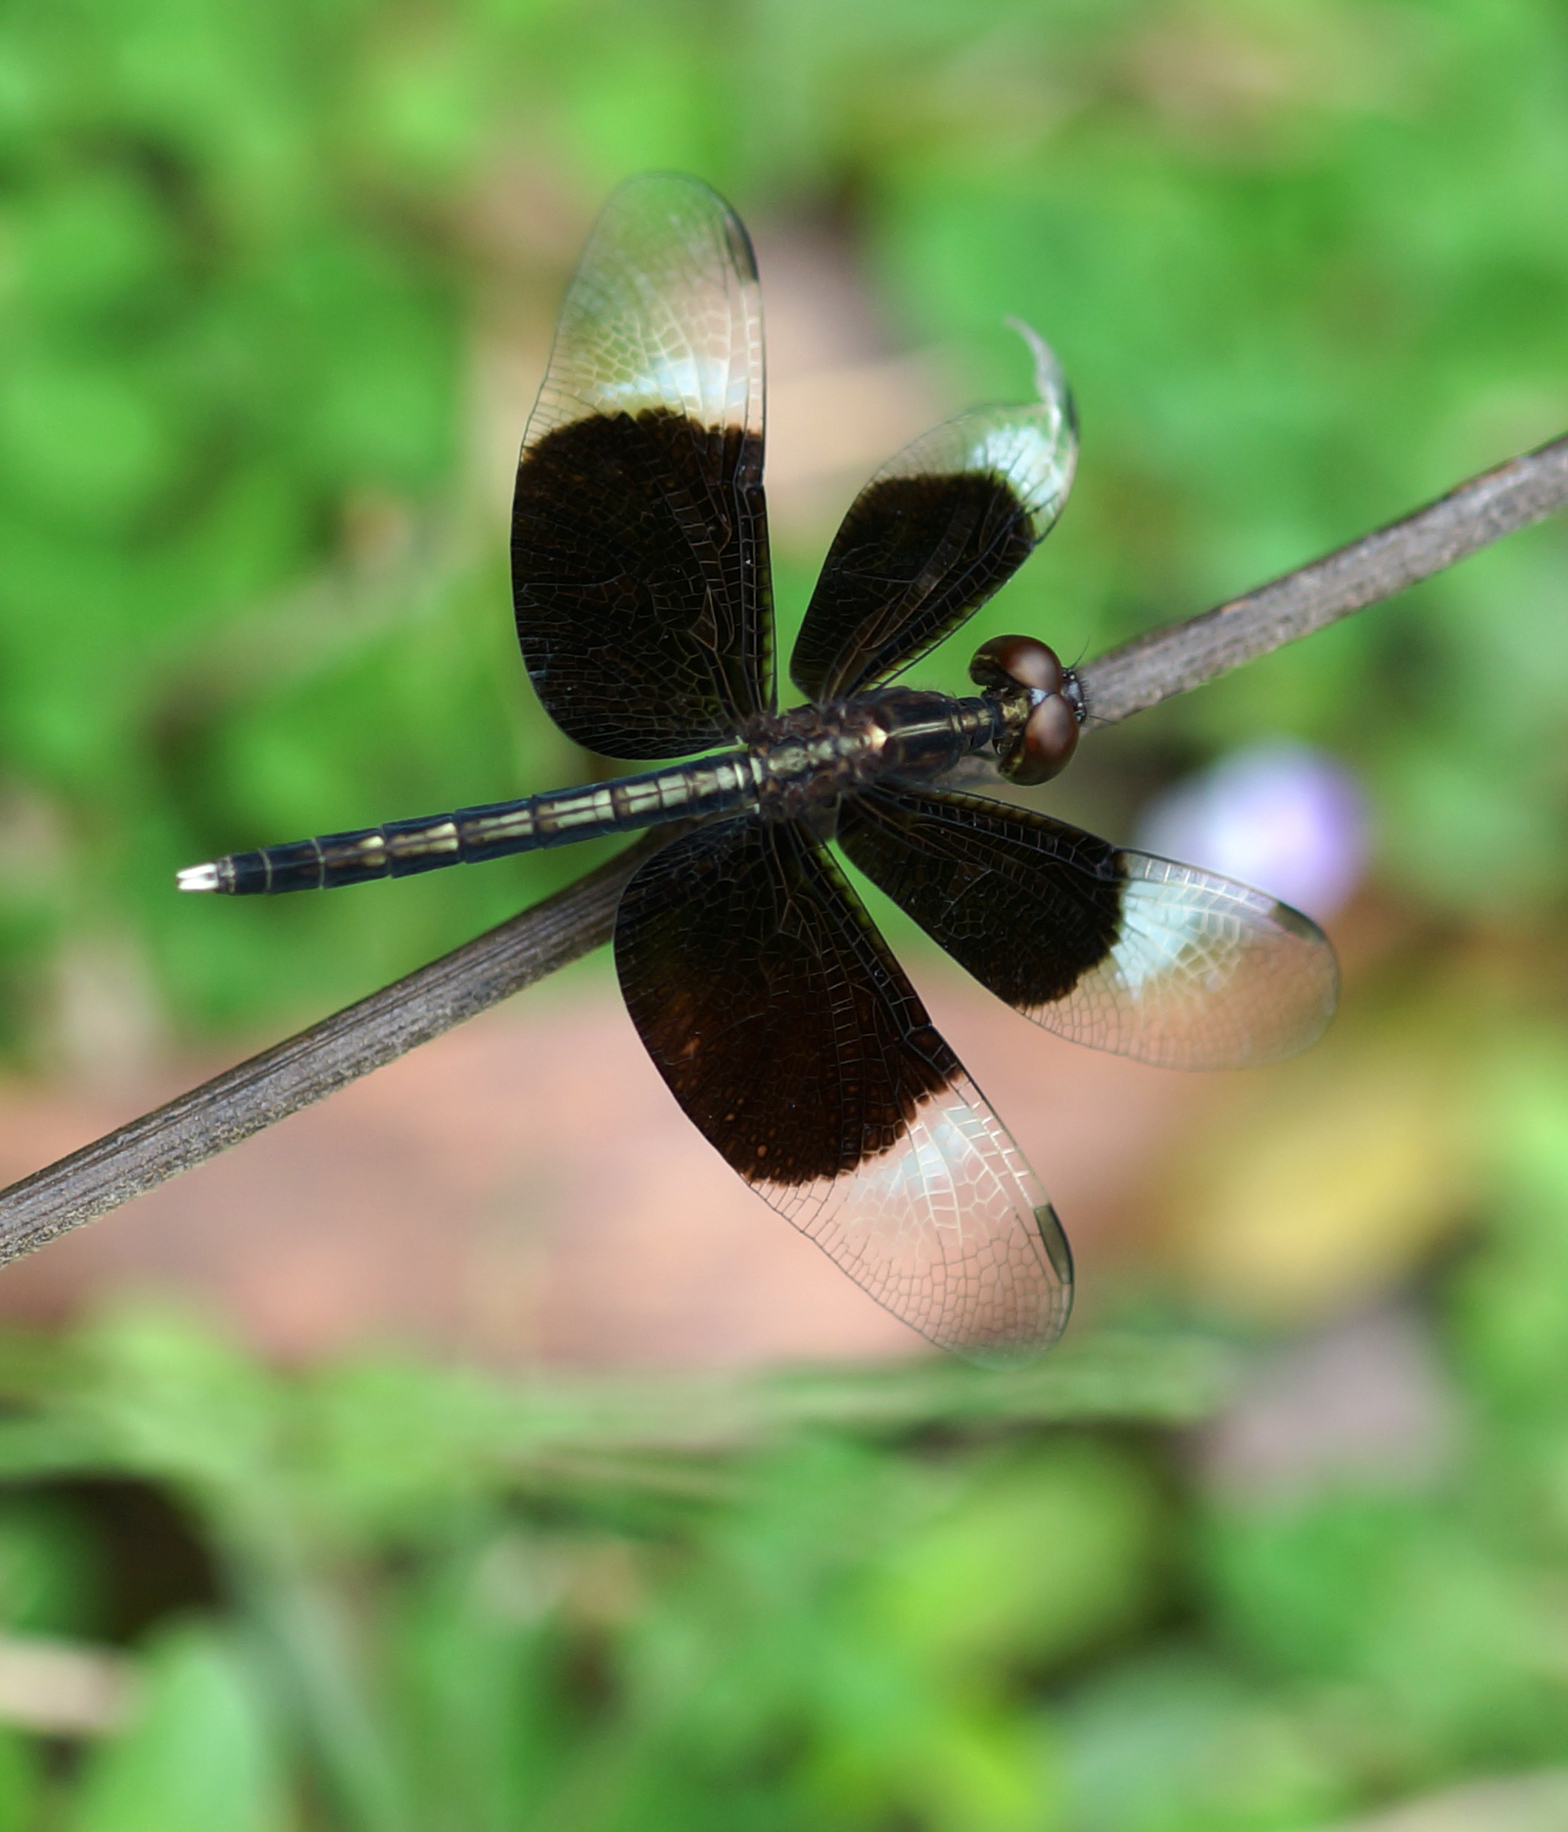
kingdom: Animalia
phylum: Arthropoda
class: Insecta
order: Odonata
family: Libellulidae
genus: Neurothemis
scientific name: Neurothemis tullia
